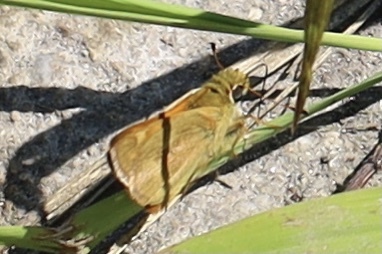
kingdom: Animalia
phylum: Arthropoda
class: Insecta
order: Lepidoptera
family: Hesperiidae
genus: Ochlodes
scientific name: Ochlodes sylvanoides
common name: Woodland skipper
